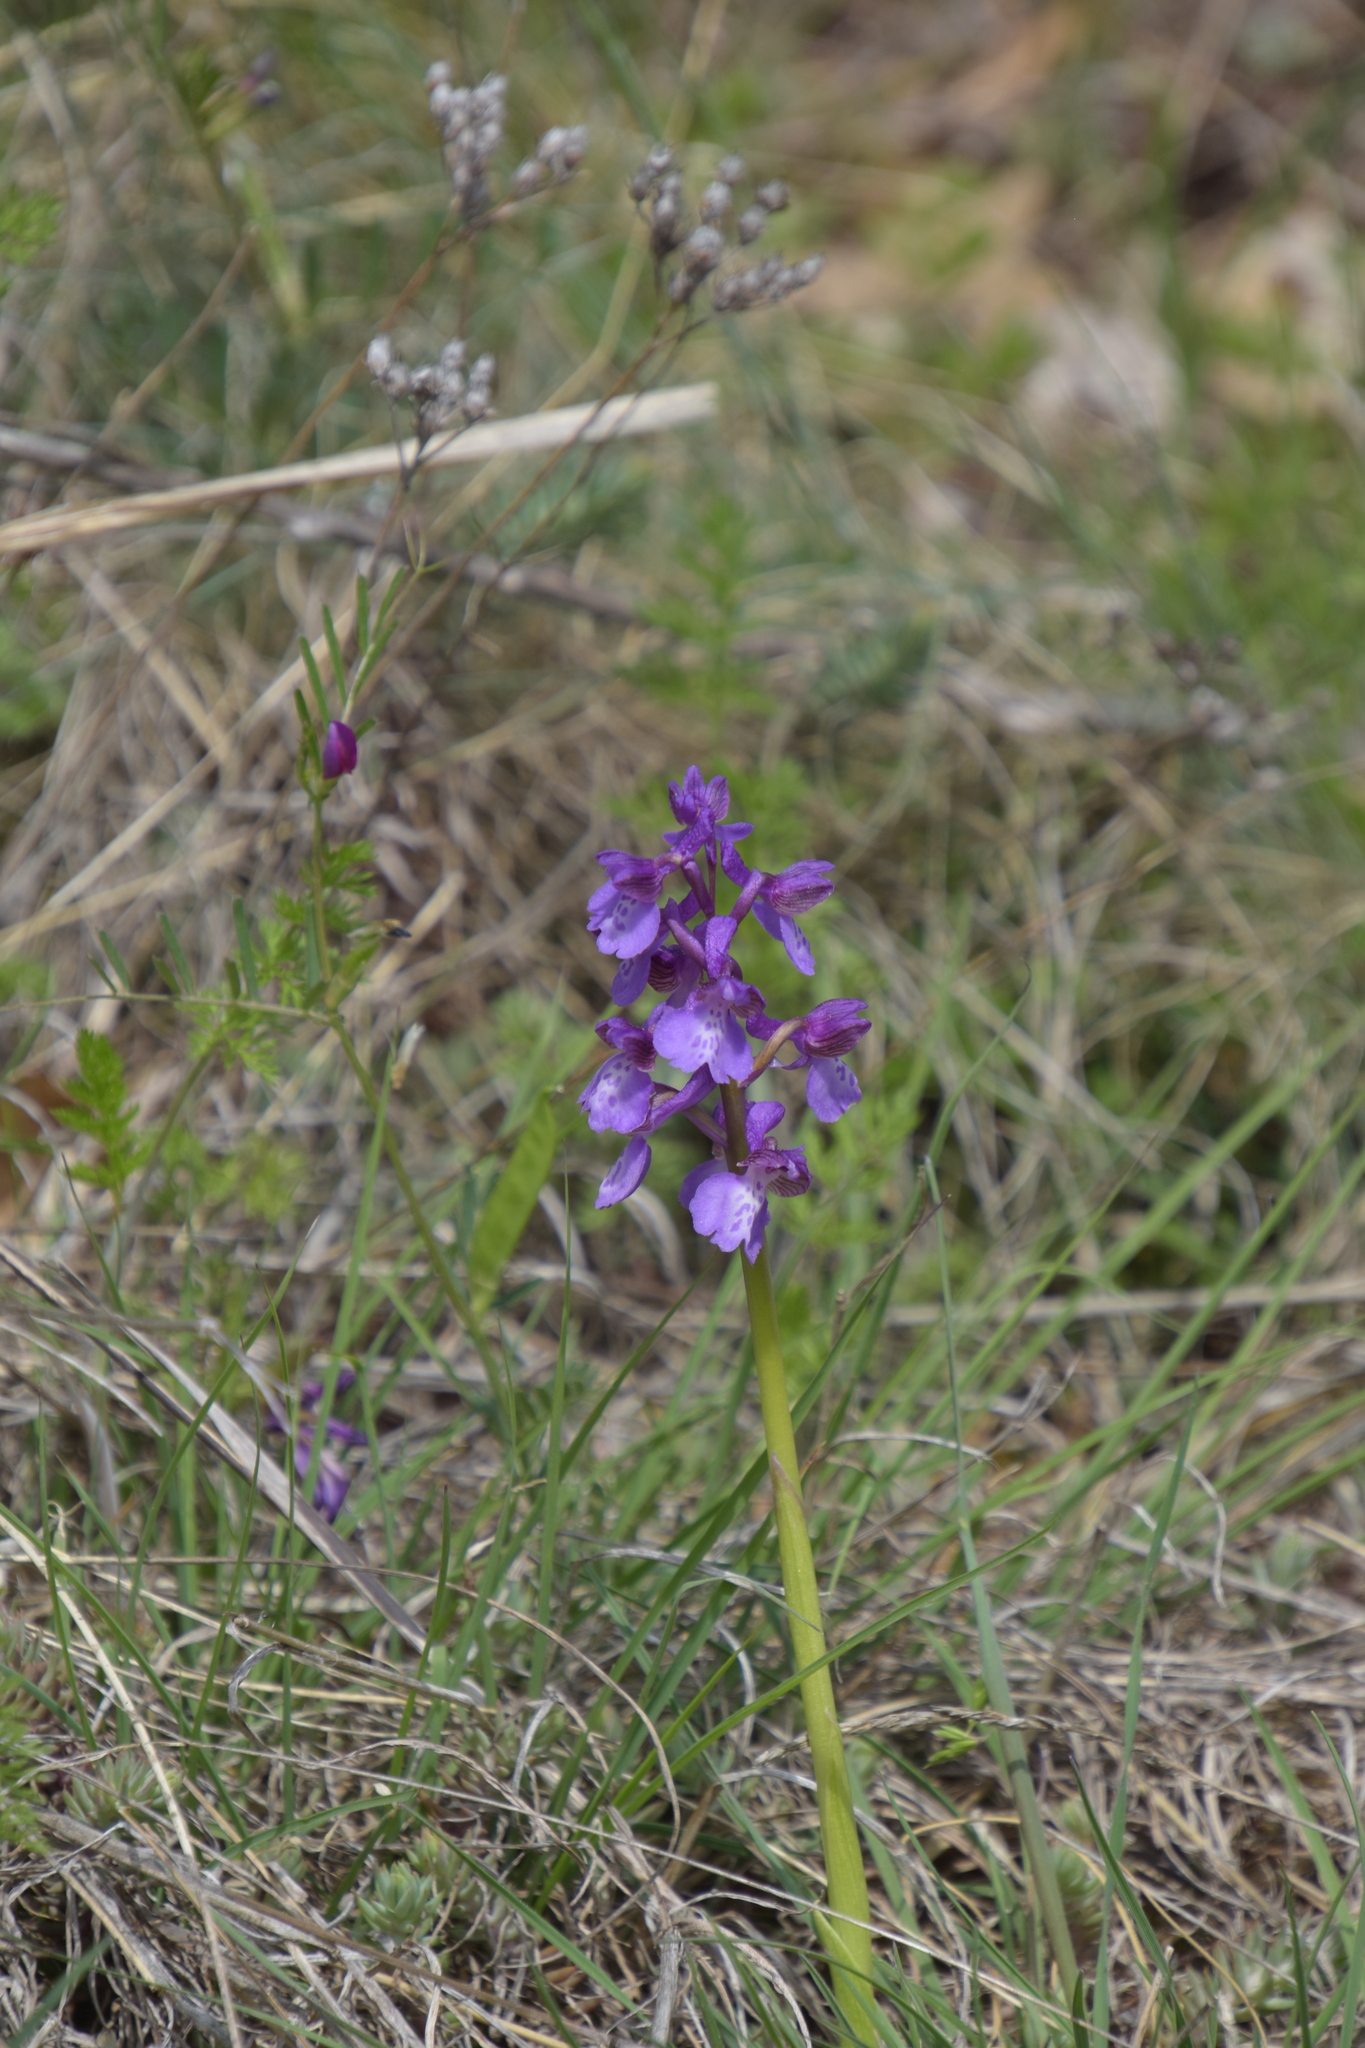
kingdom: Plantae
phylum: Tracheophyta
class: Liliopsida
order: Asparagales
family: Orchidaceae
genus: Anacamptis
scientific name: Anacamptis morio
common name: Green-winged orchid
